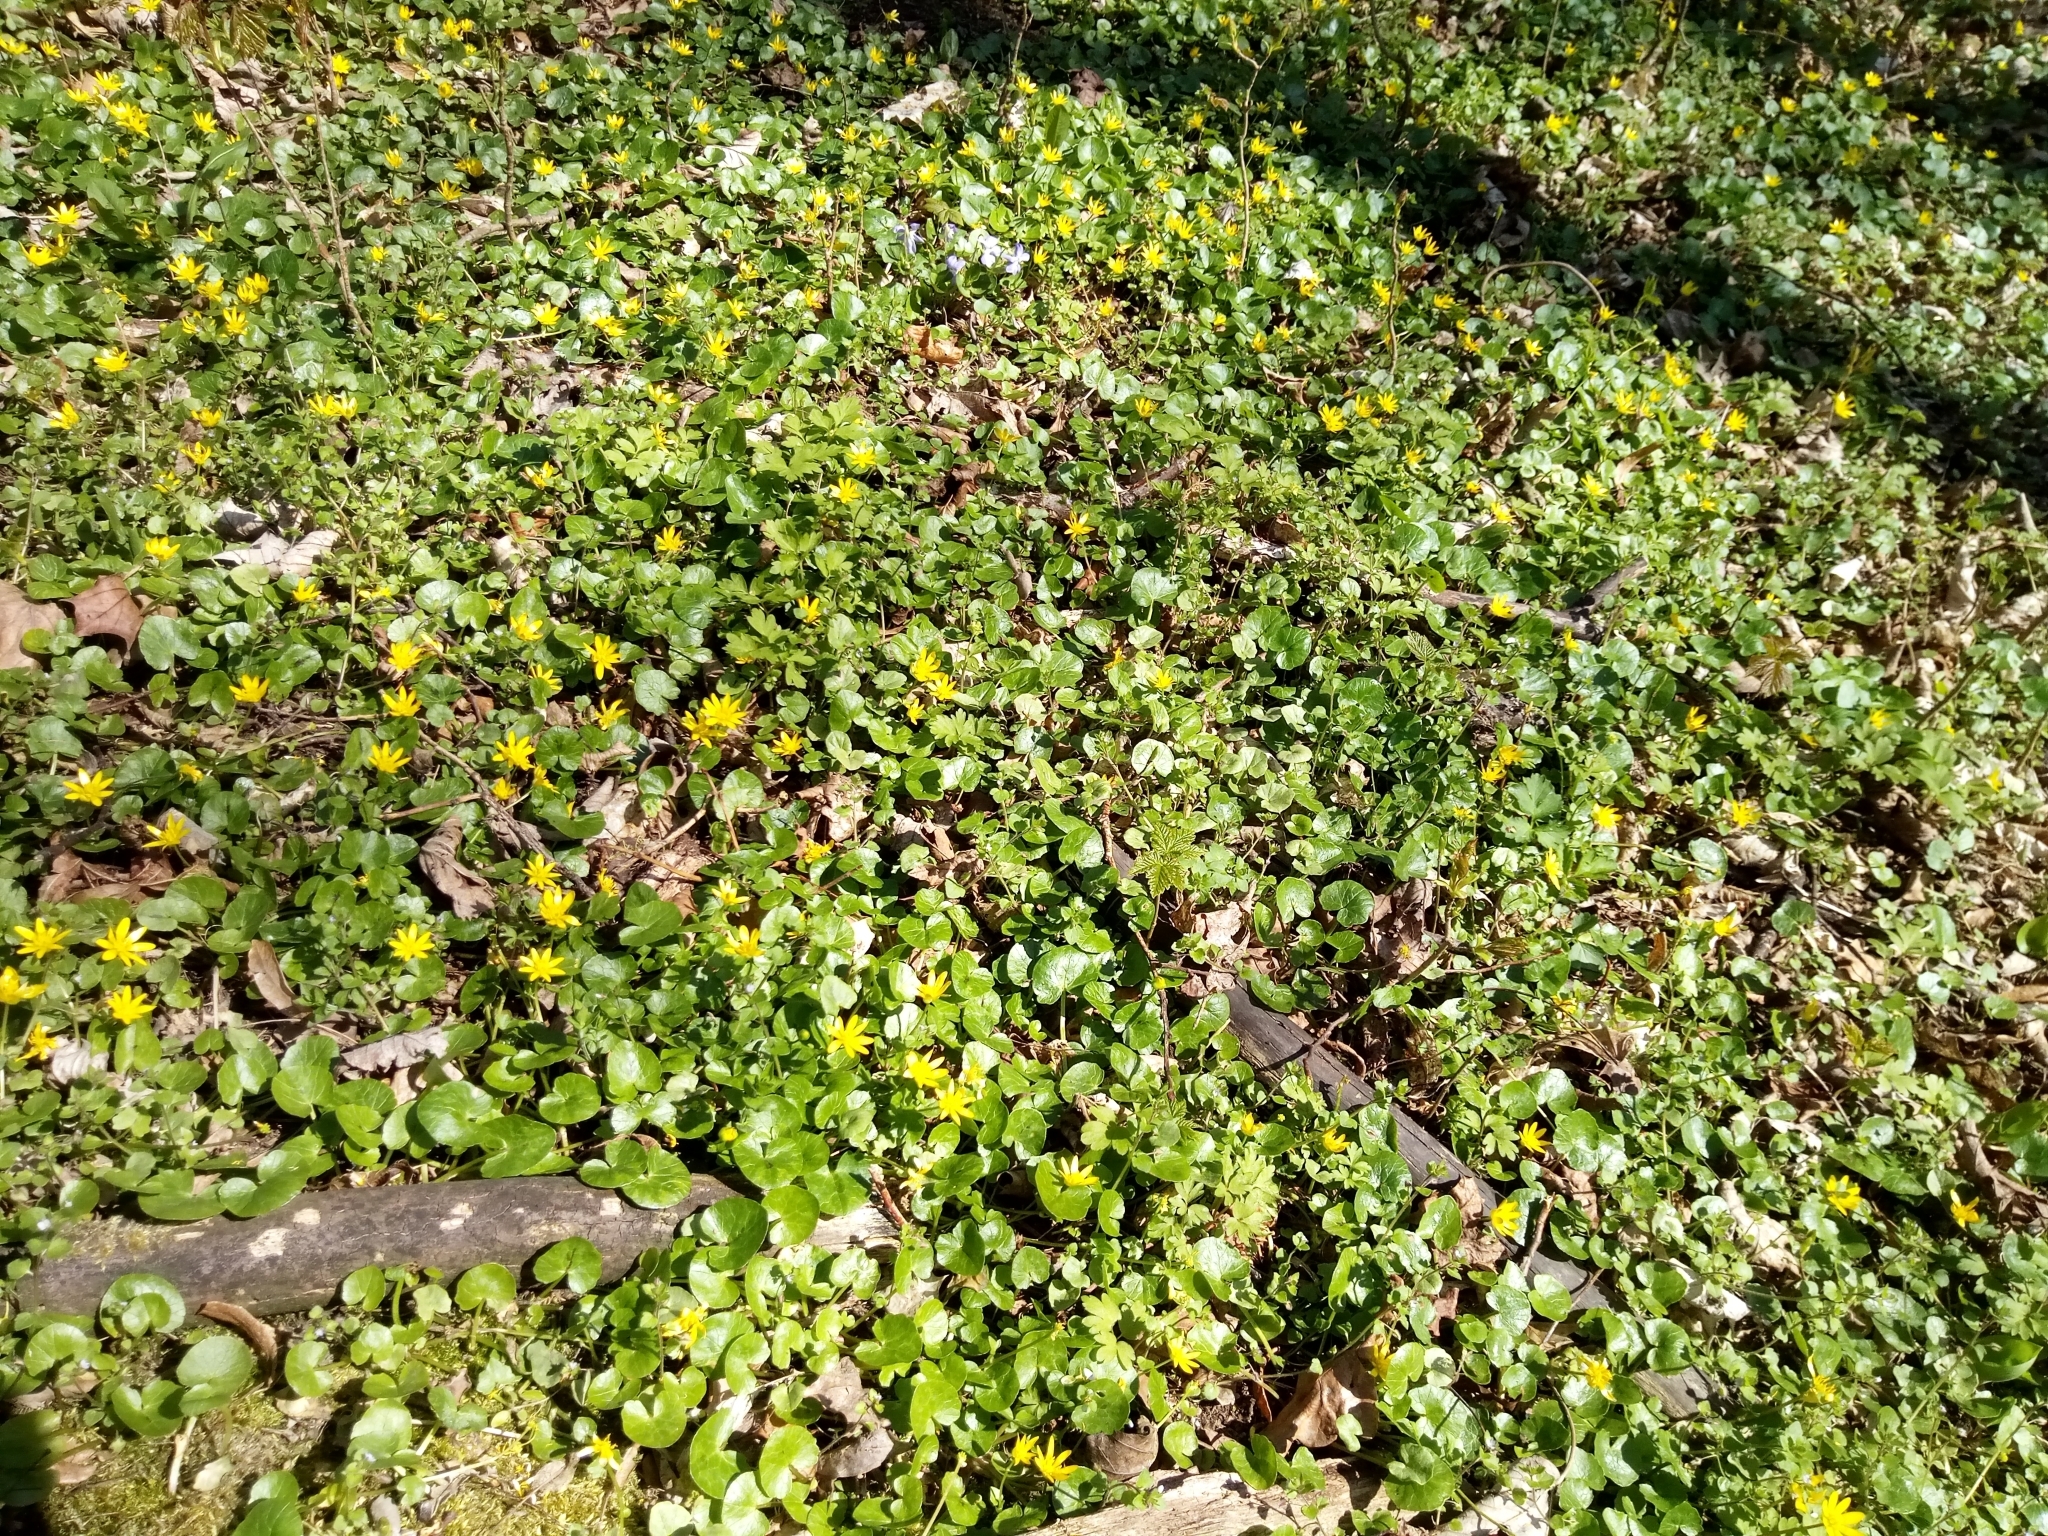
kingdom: Plantae
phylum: Tracheophyta
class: Magnoliopsida
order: Ranunculales
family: Ranunculaceae
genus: Ficaria
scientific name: Ficaria verna
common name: Lesser celandine
